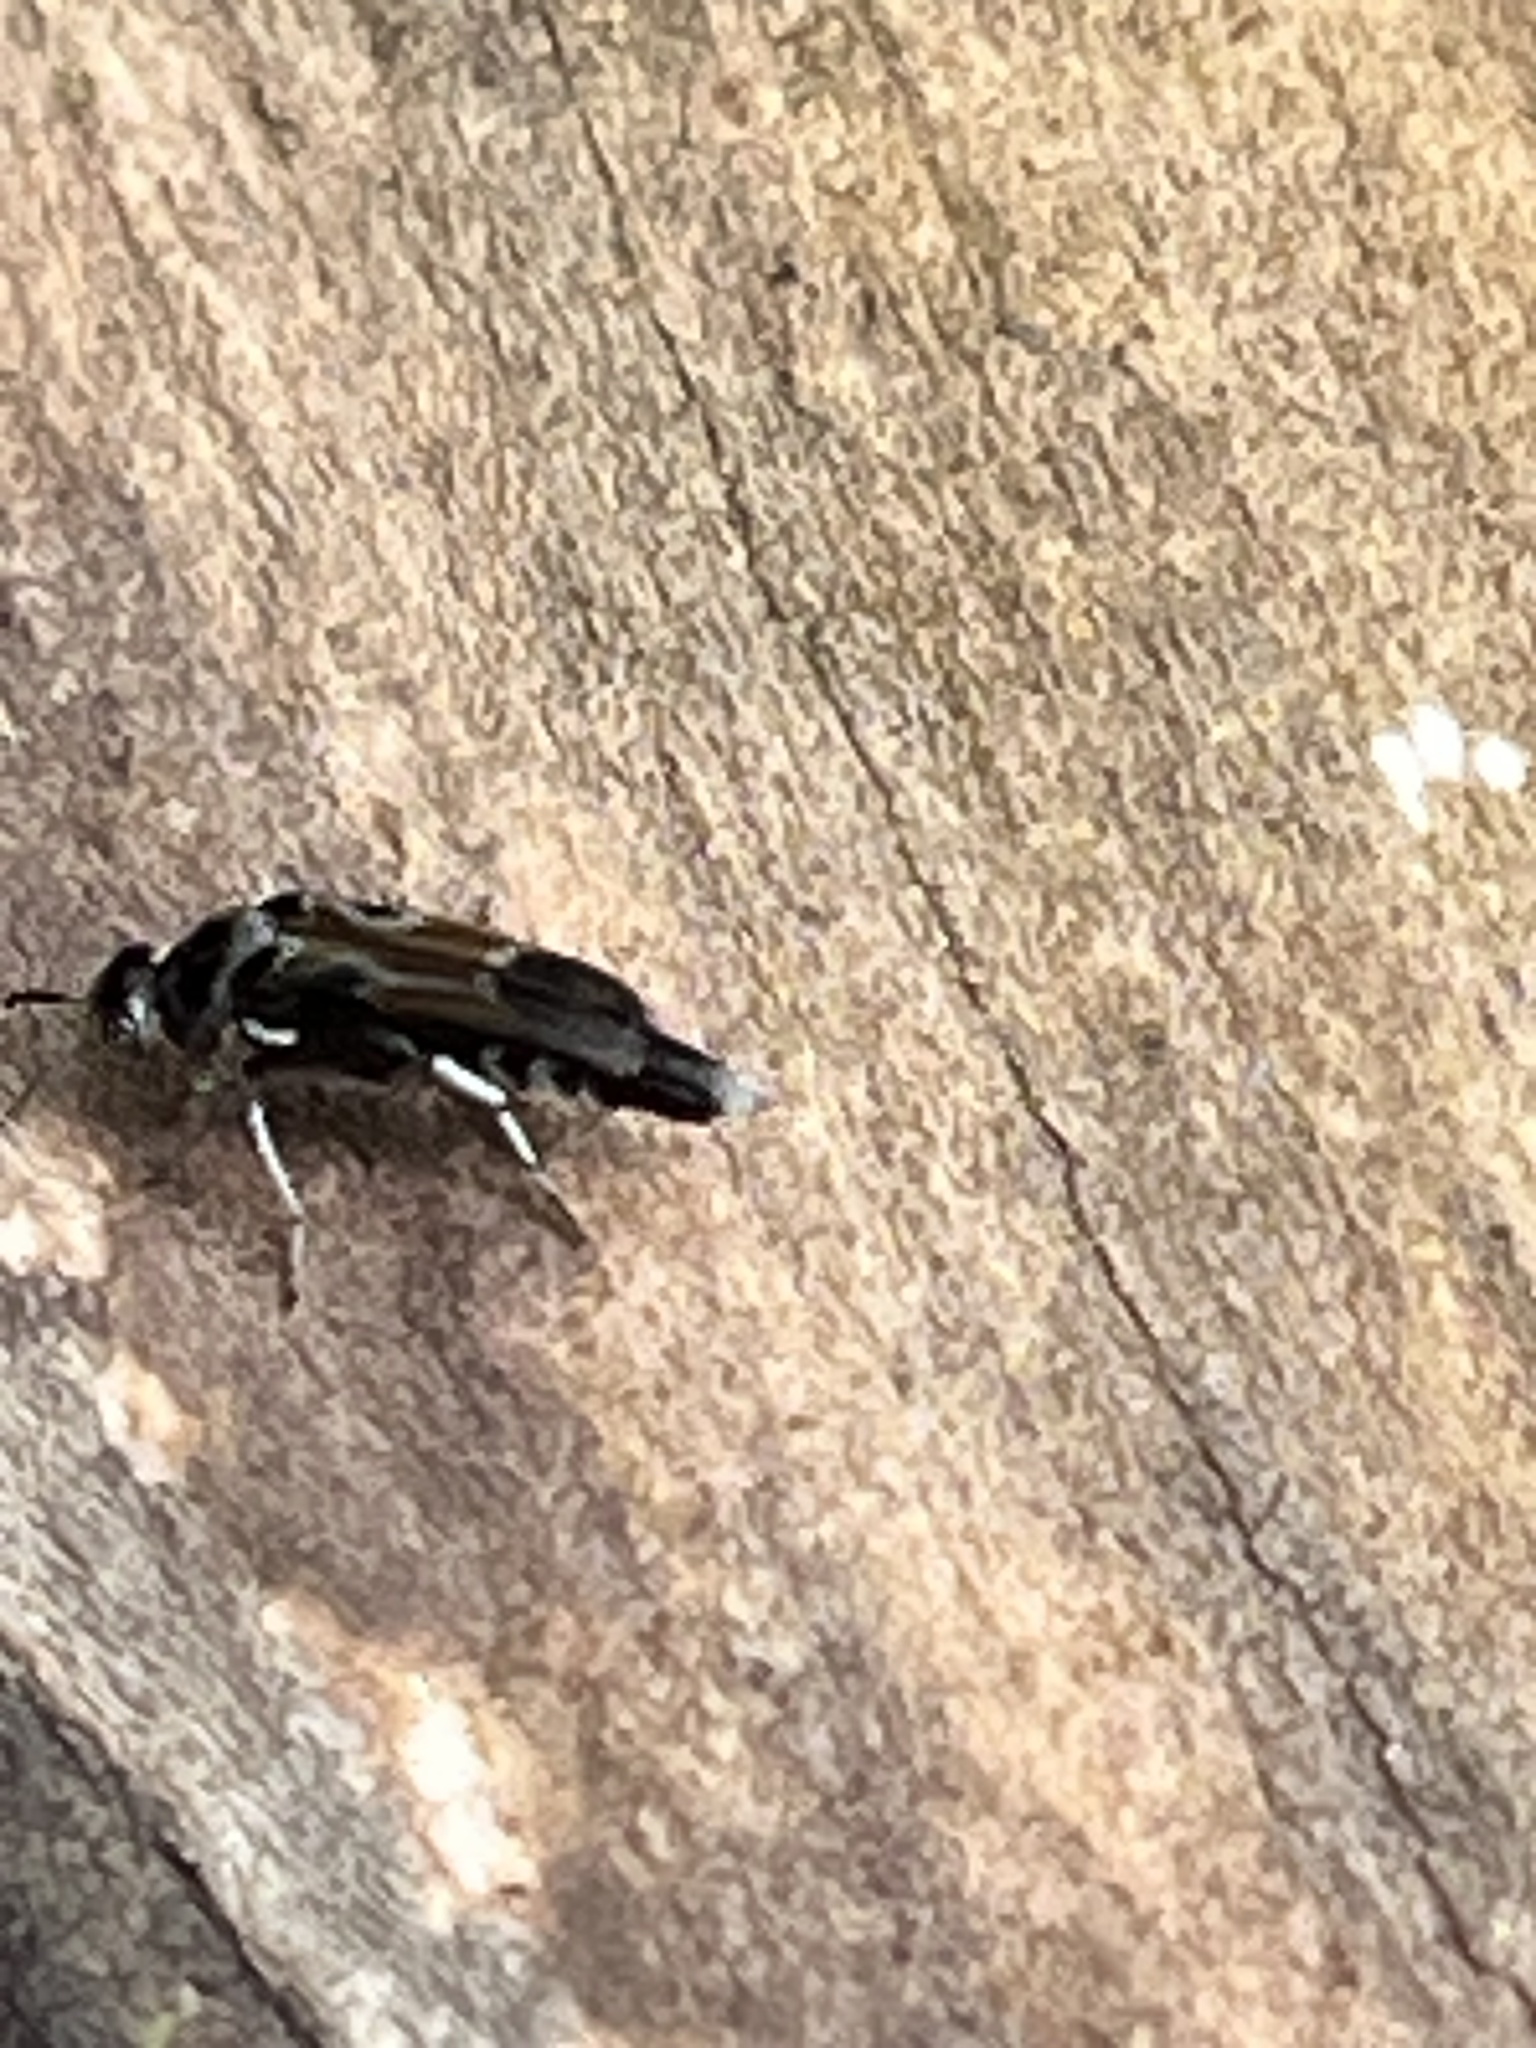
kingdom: Animalia
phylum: Arthropoda
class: Insecta
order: Coleoptera
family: Mordellidae
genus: Glipa
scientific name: Glipa hilaris
